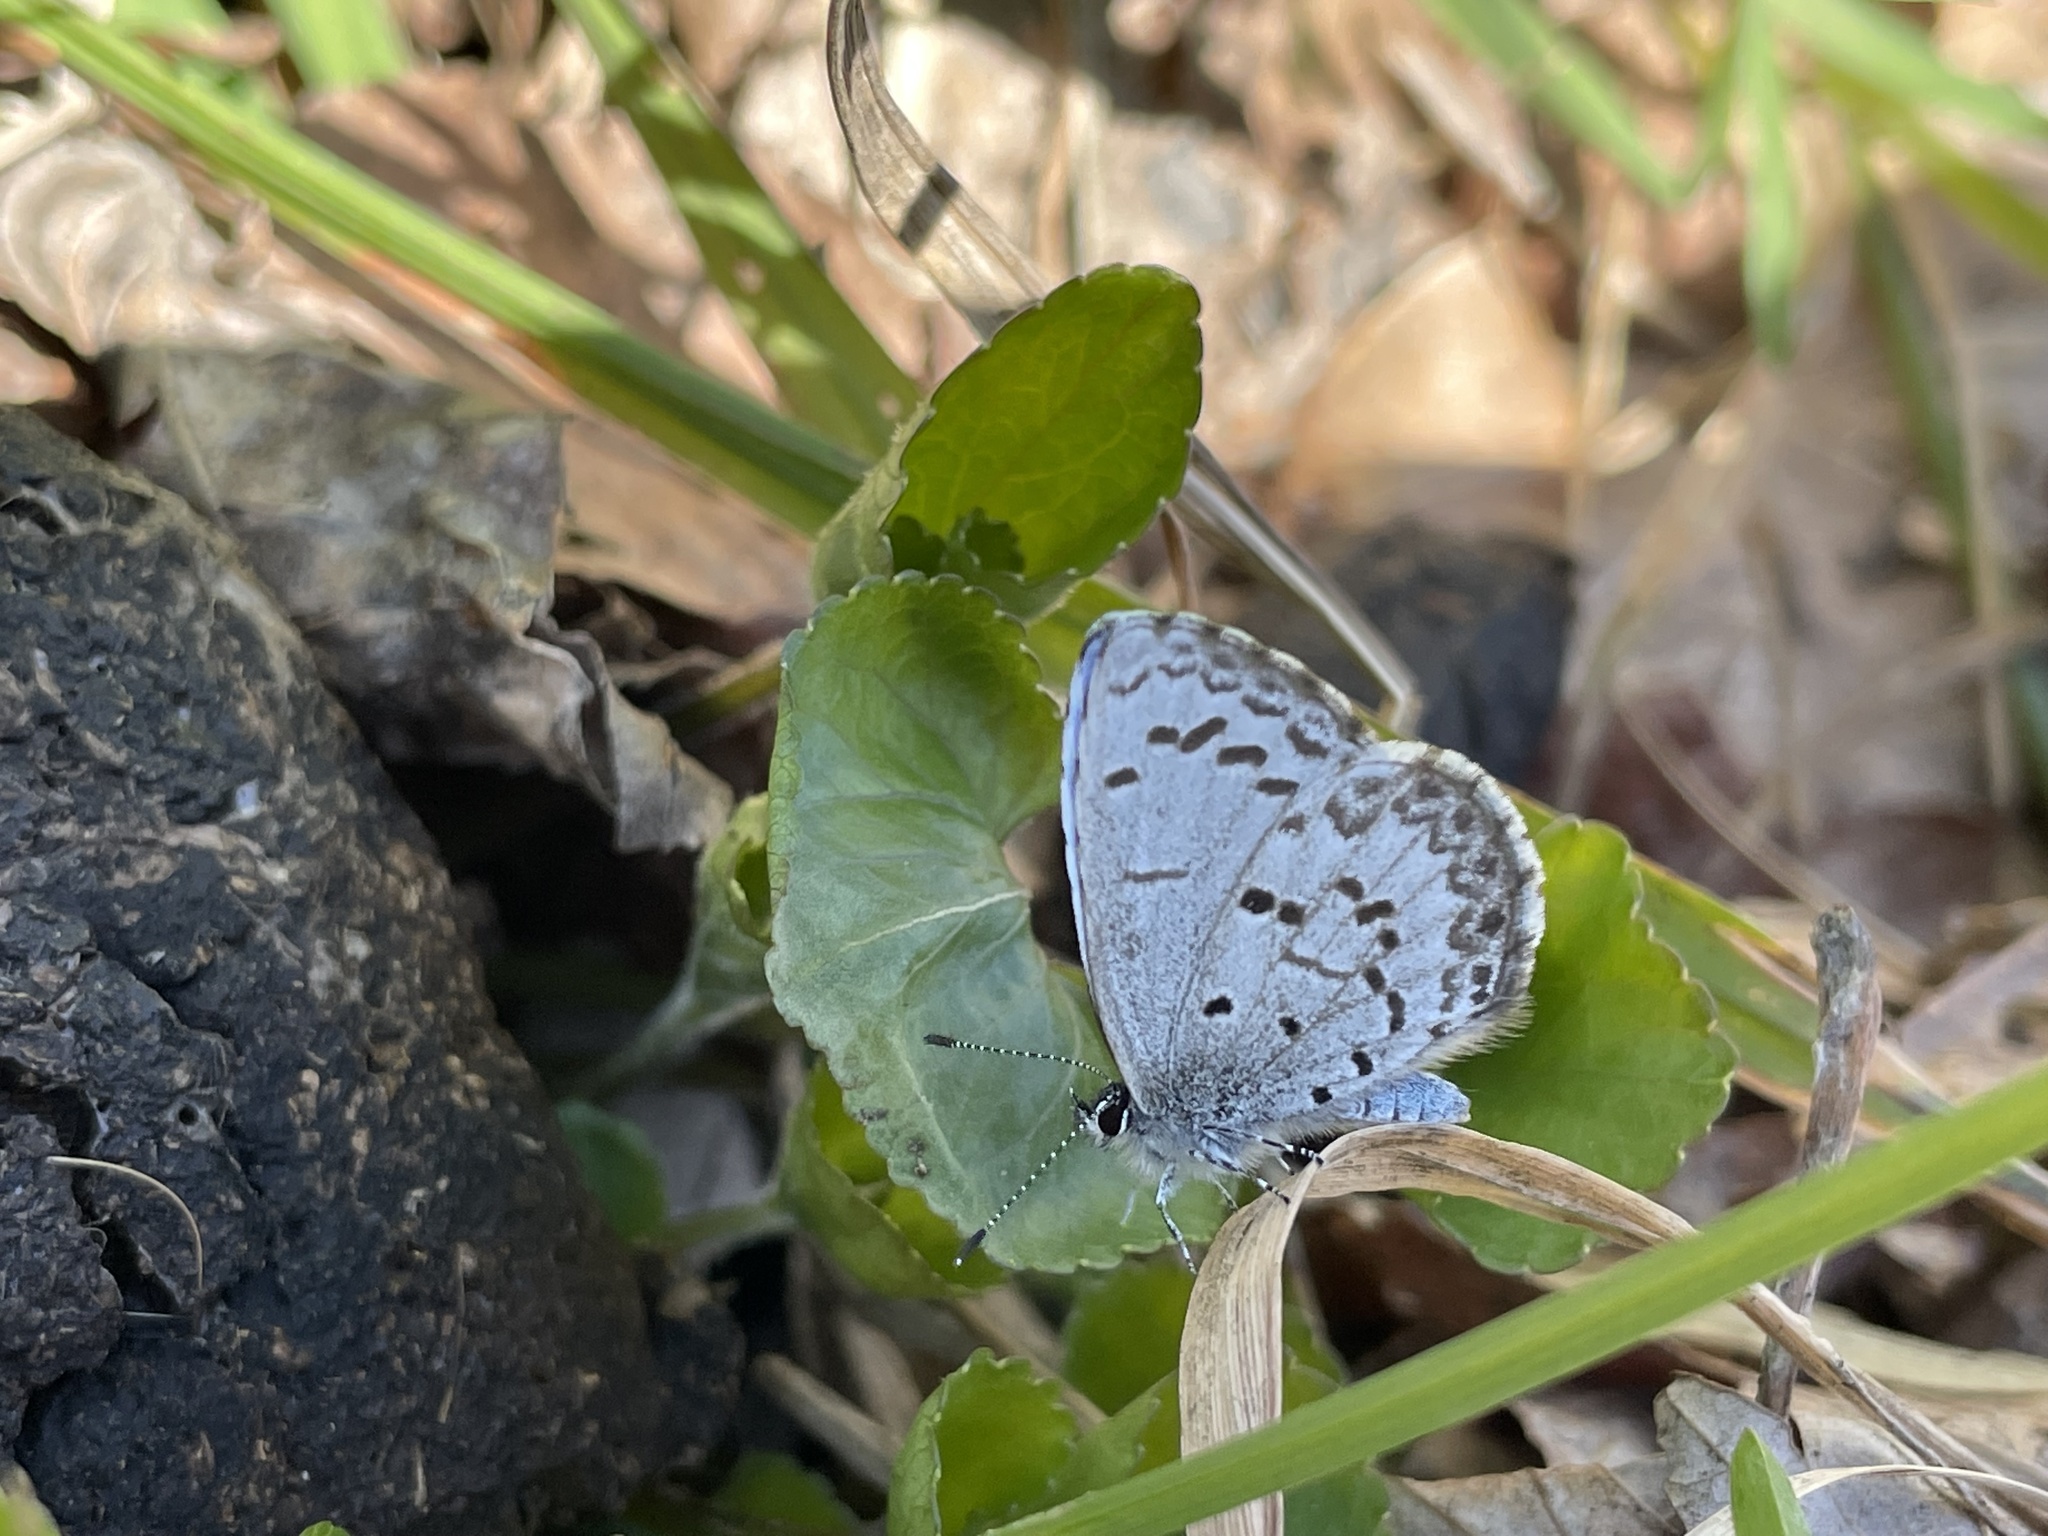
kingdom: Animalia
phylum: Arthropoda
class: Insecta
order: Lepidoptera
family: Lycaenidae
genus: Celastrina
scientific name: Celastrina lucia
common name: Lucia azure
